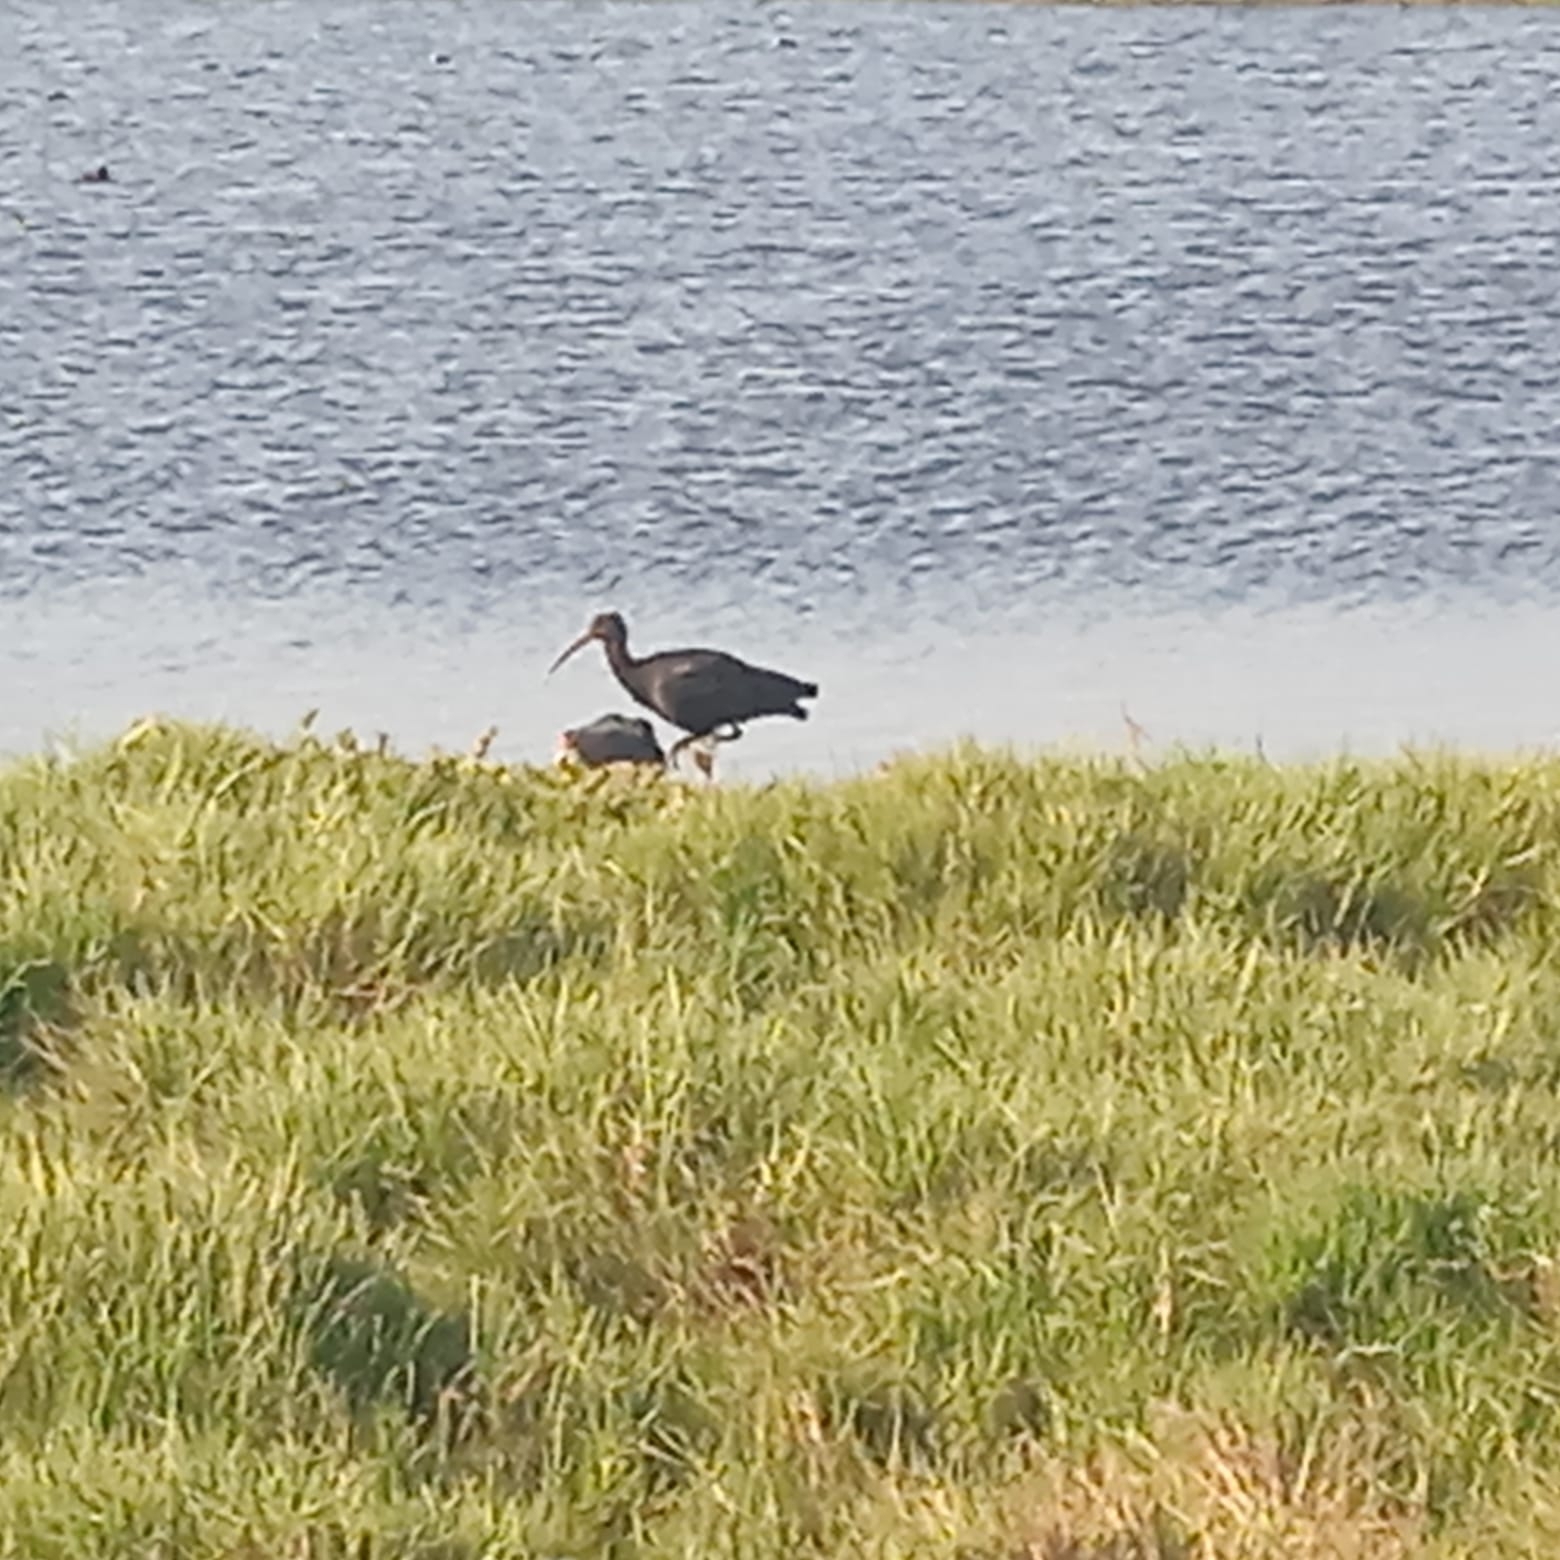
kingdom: Animalia
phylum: Chordata
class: Aves
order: Pelecaniformes
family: Threskiornithidae
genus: Plegadis
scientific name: Plegadis ridgwayi
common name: Puna ibis
